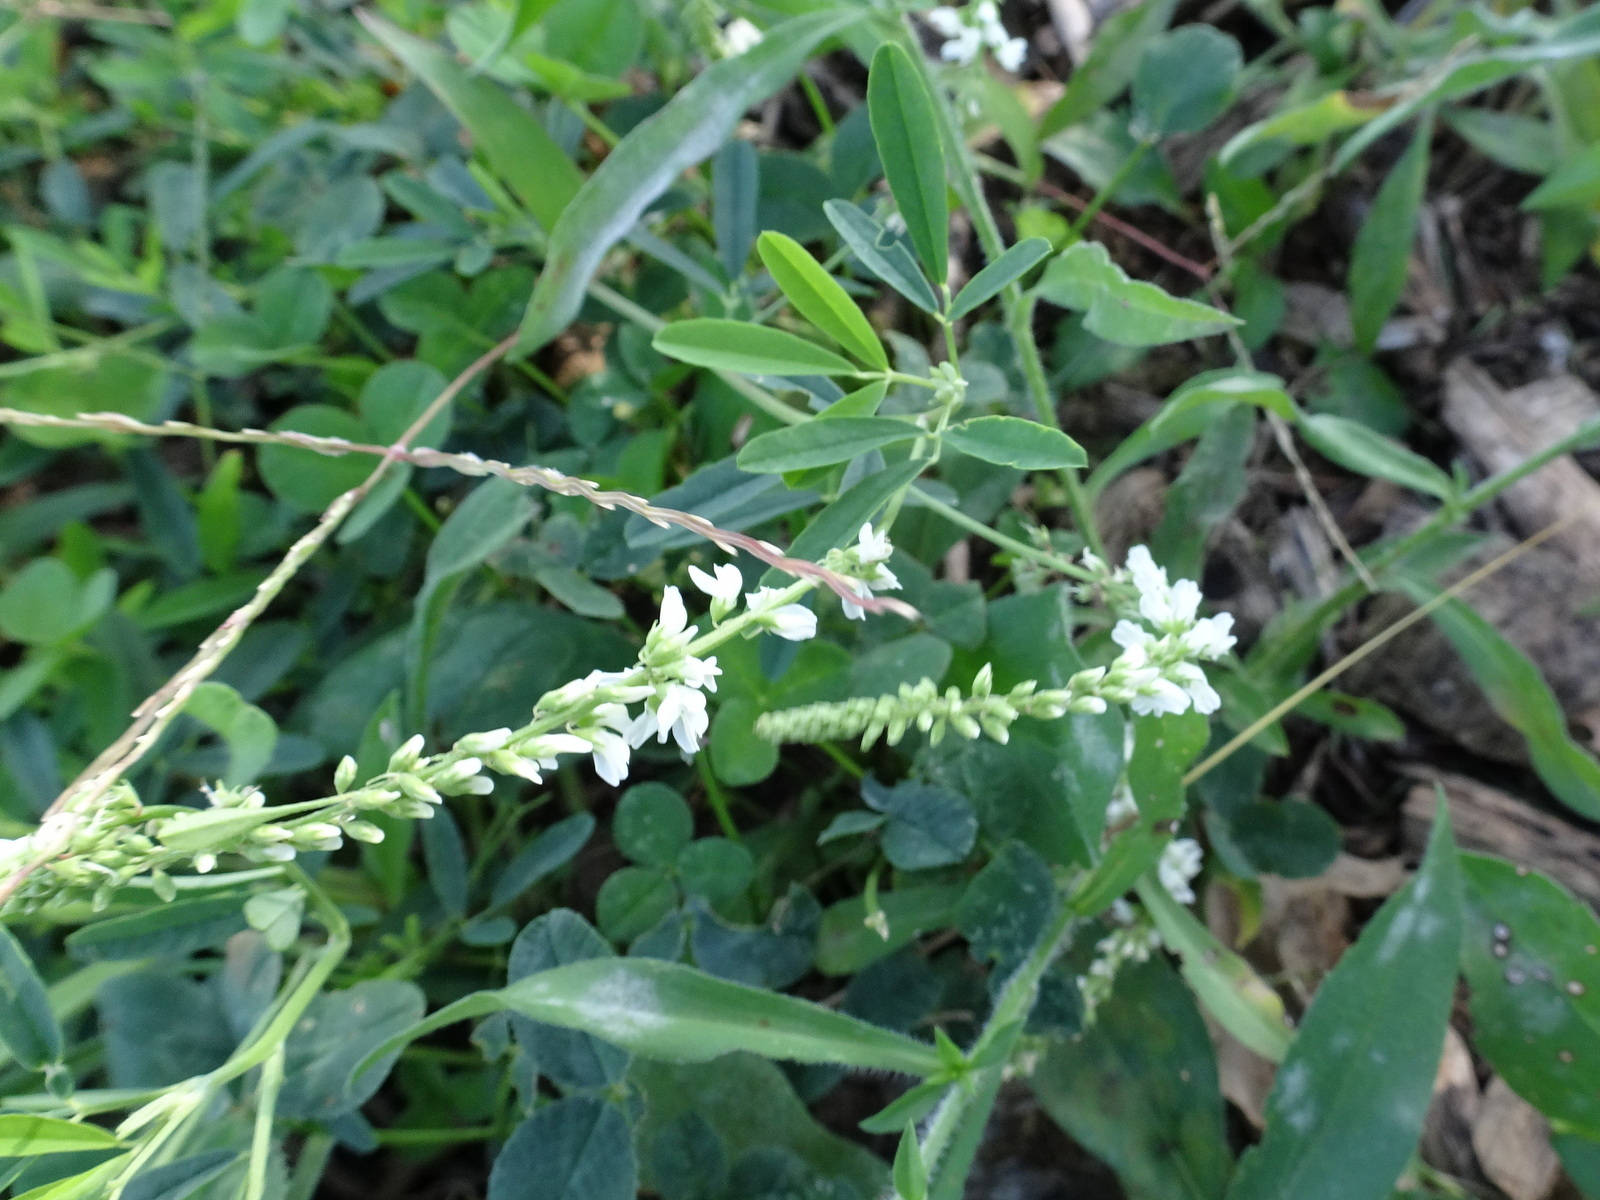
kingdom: Plantae
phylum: Tracheophyta
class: Magnoliopsida
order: Fabales
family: Fabaceae
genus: Melilotus
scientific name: Melilotus albus
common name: White melilot
